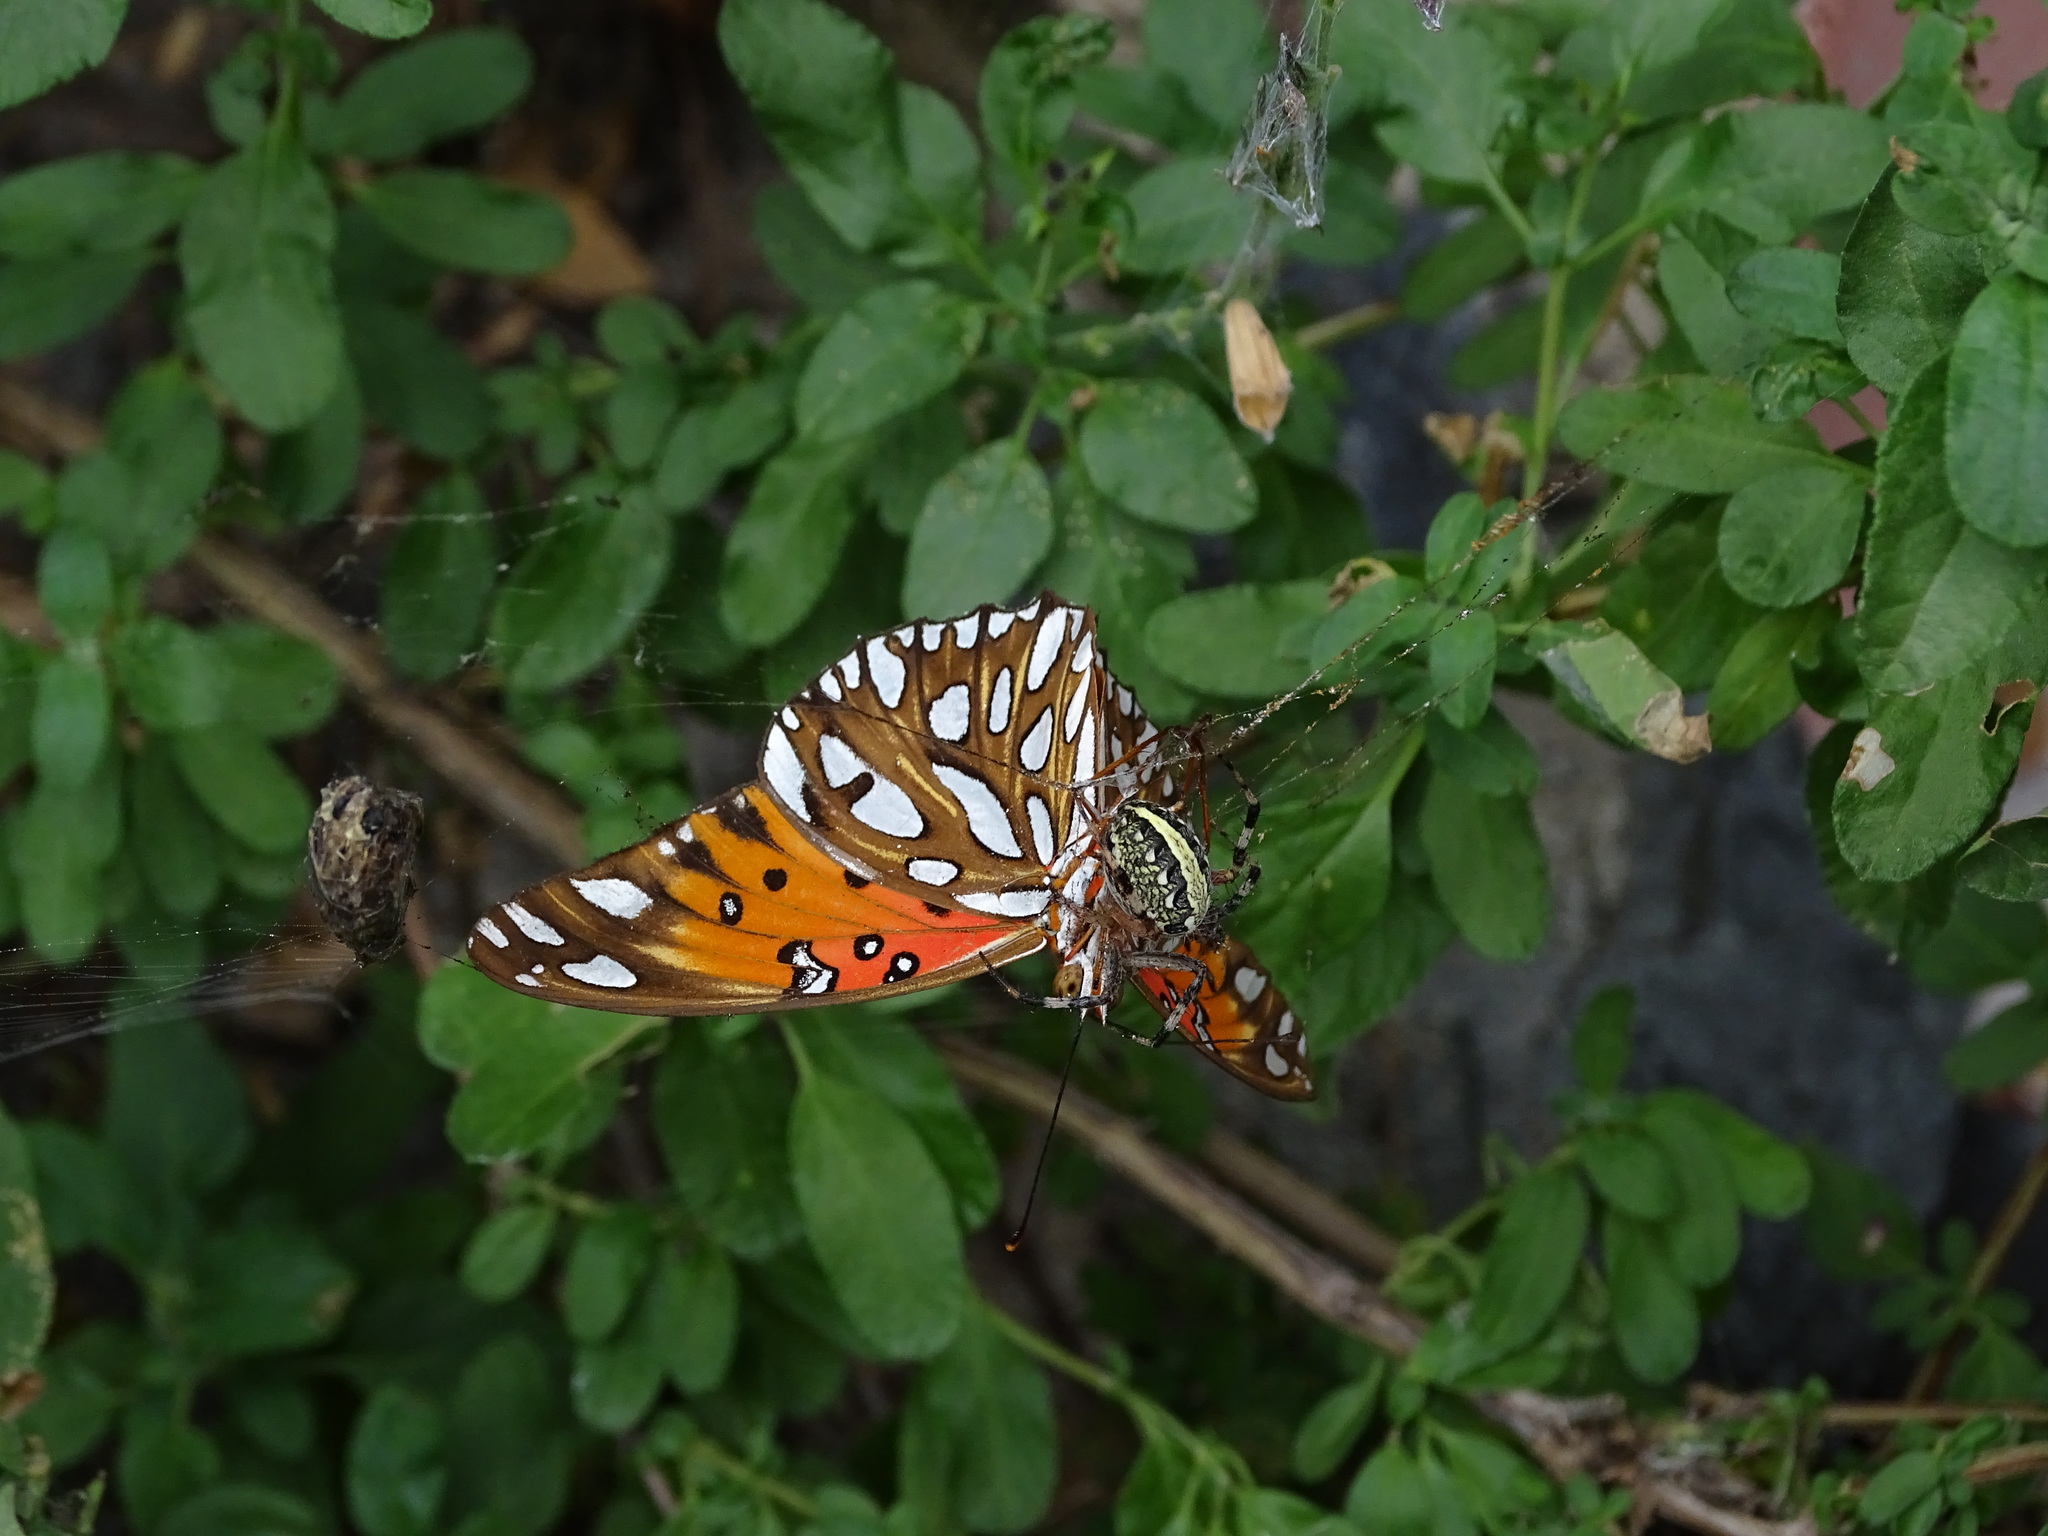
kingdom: Animalia
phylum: Arthropoda
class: Insecta
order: Lepidoptera
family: Nymphalidae
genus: Dione
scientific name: Dione vanillae
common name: Gulf fritillary
